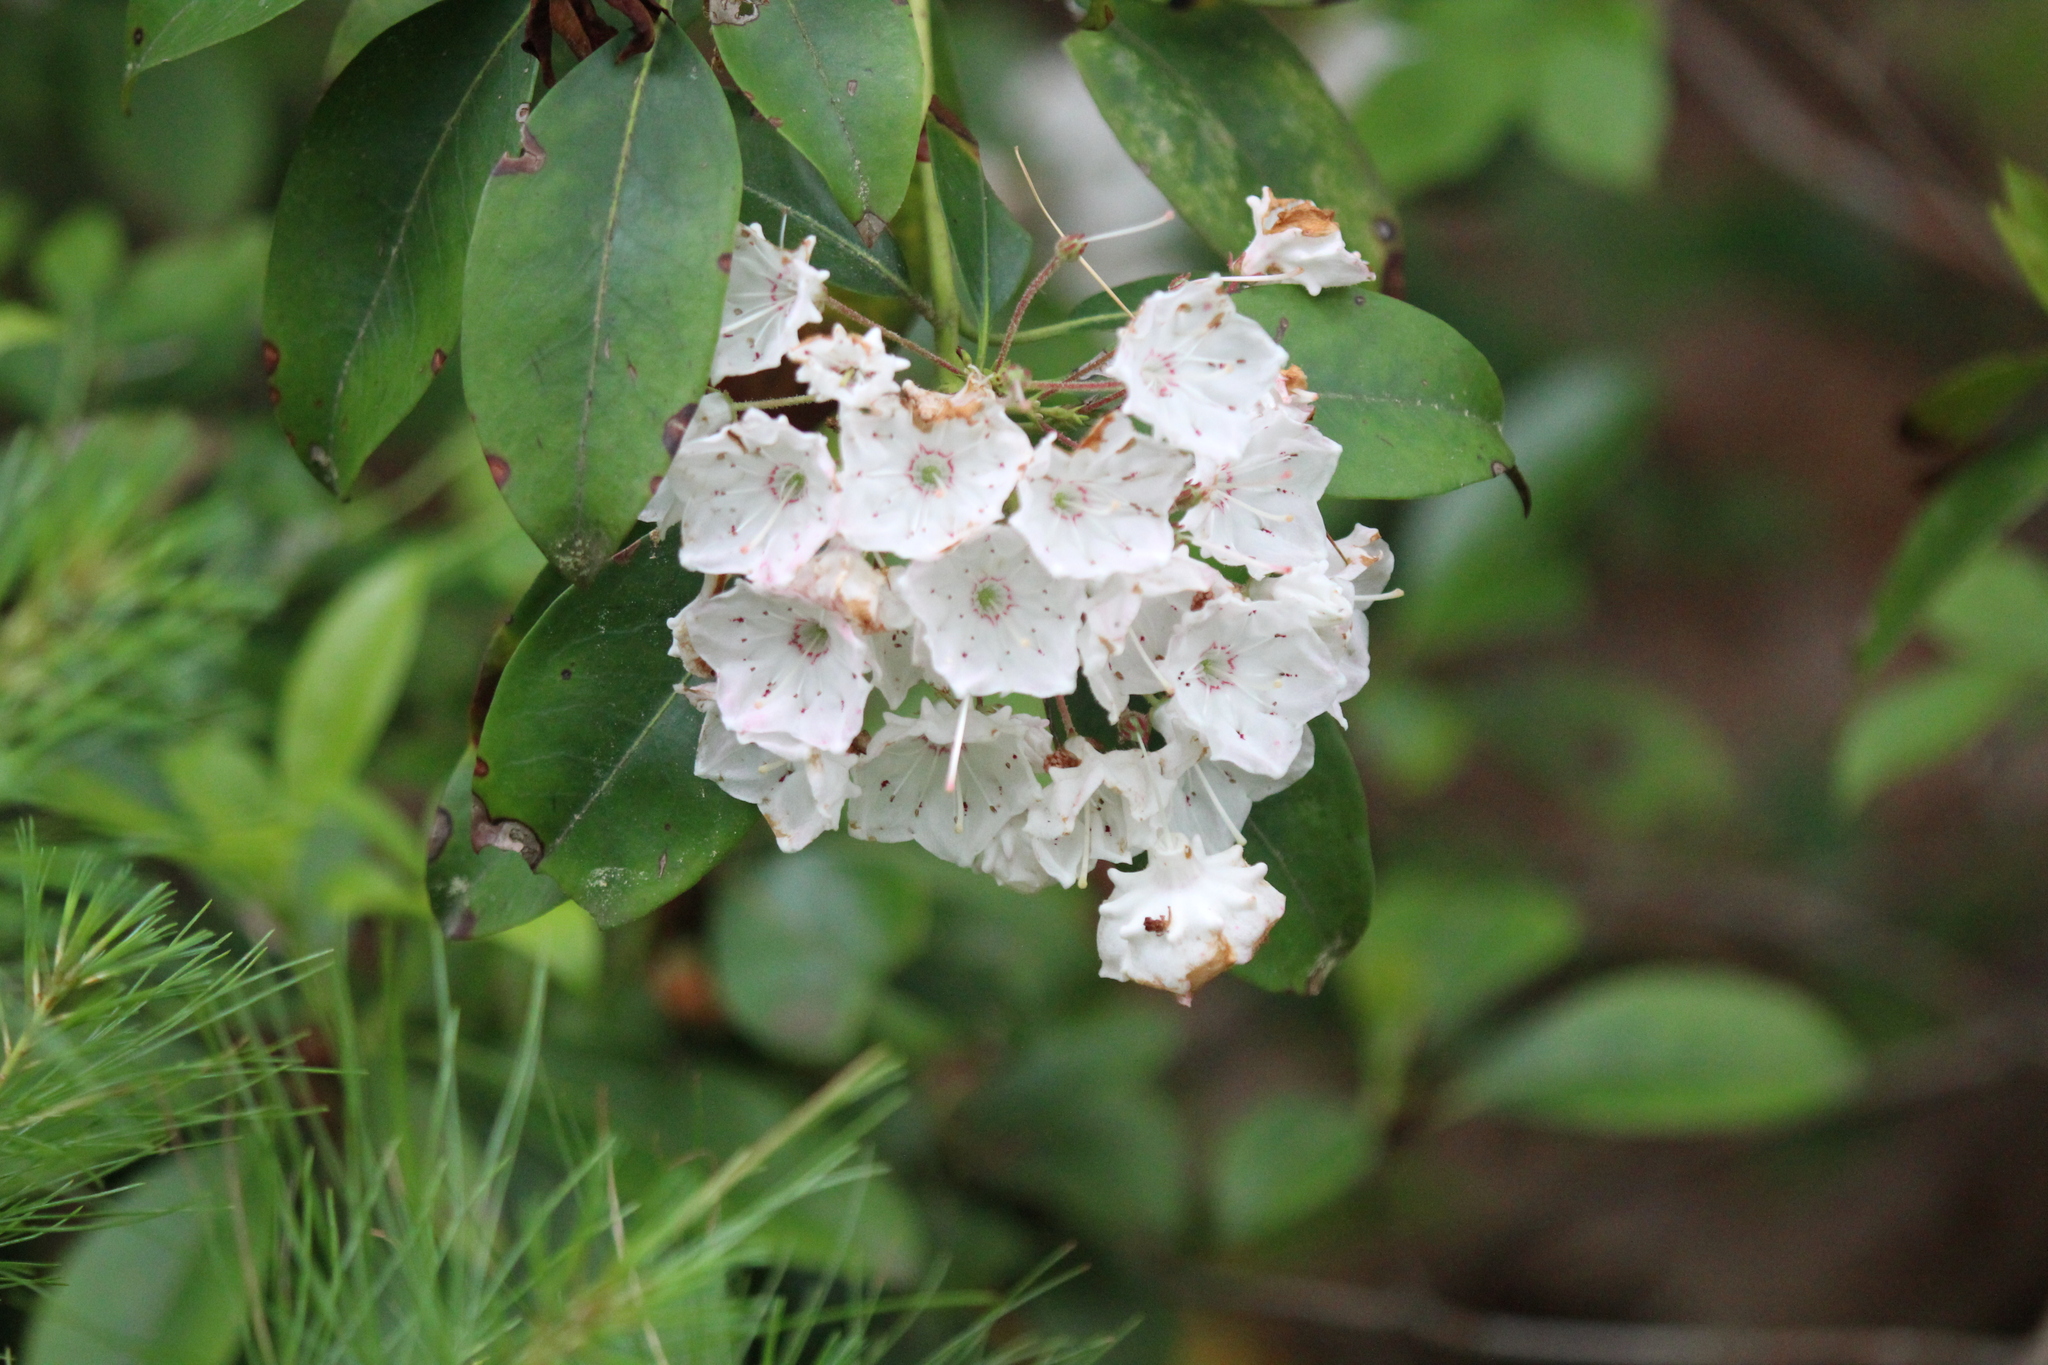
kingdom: Plantae
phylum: Tracheophyta
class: Magnoliopsida
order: Ericales
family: Ericaceae
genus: Kalmia
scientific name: Kalmia latifolia
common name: Mountain-laurel
